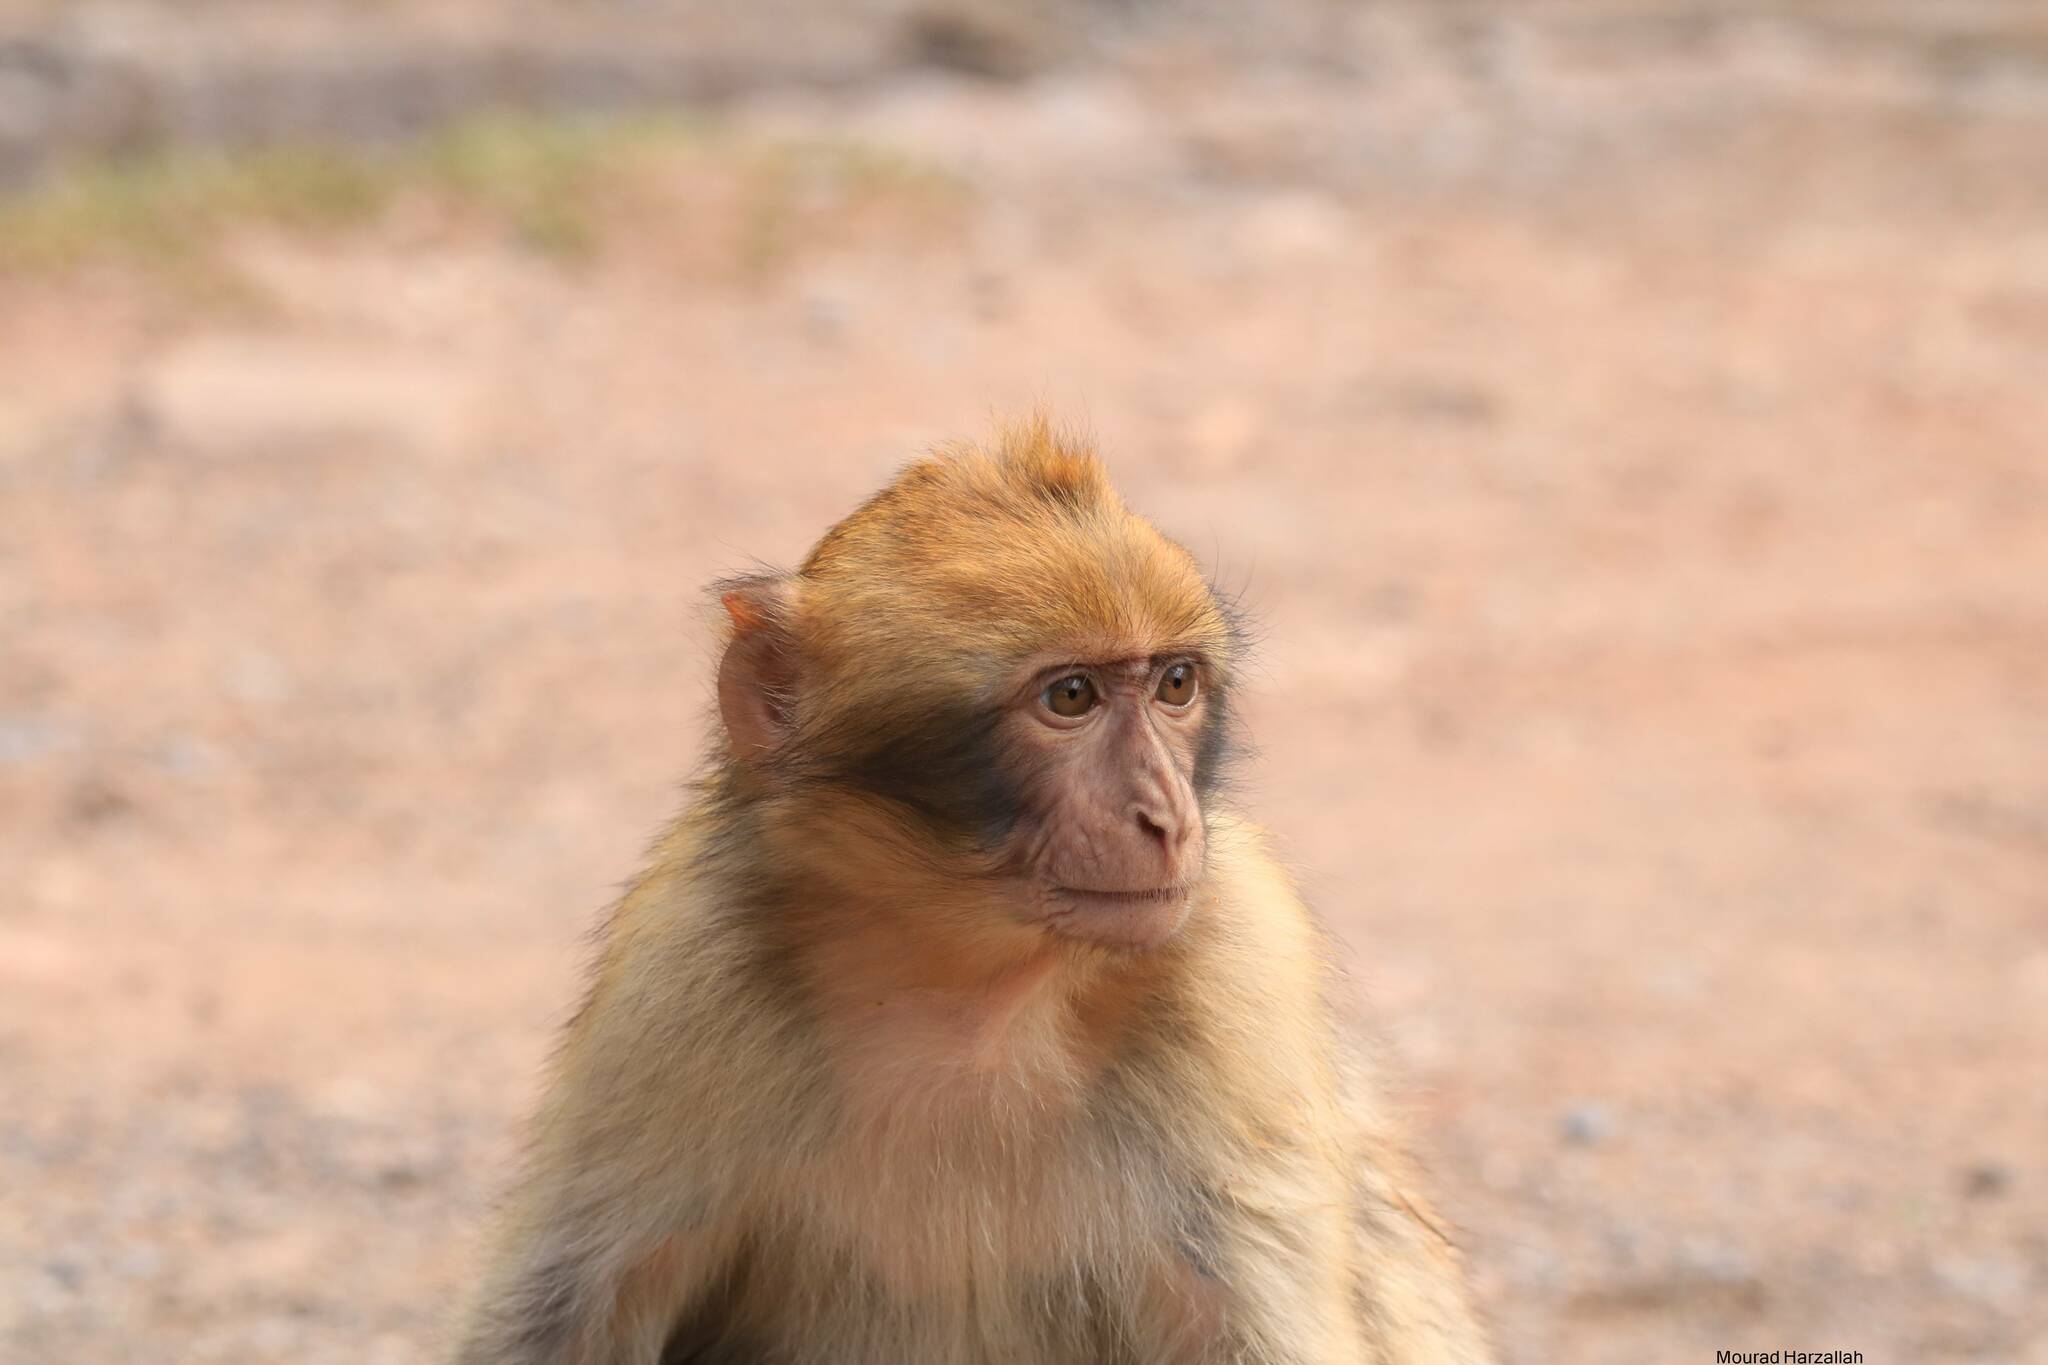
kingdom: Animalia
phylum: Chordata
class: Mammalia
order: Primates
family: Cercopithecidae
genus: Macaca
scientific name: Macaca sylvanus
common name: Barbary macaque
